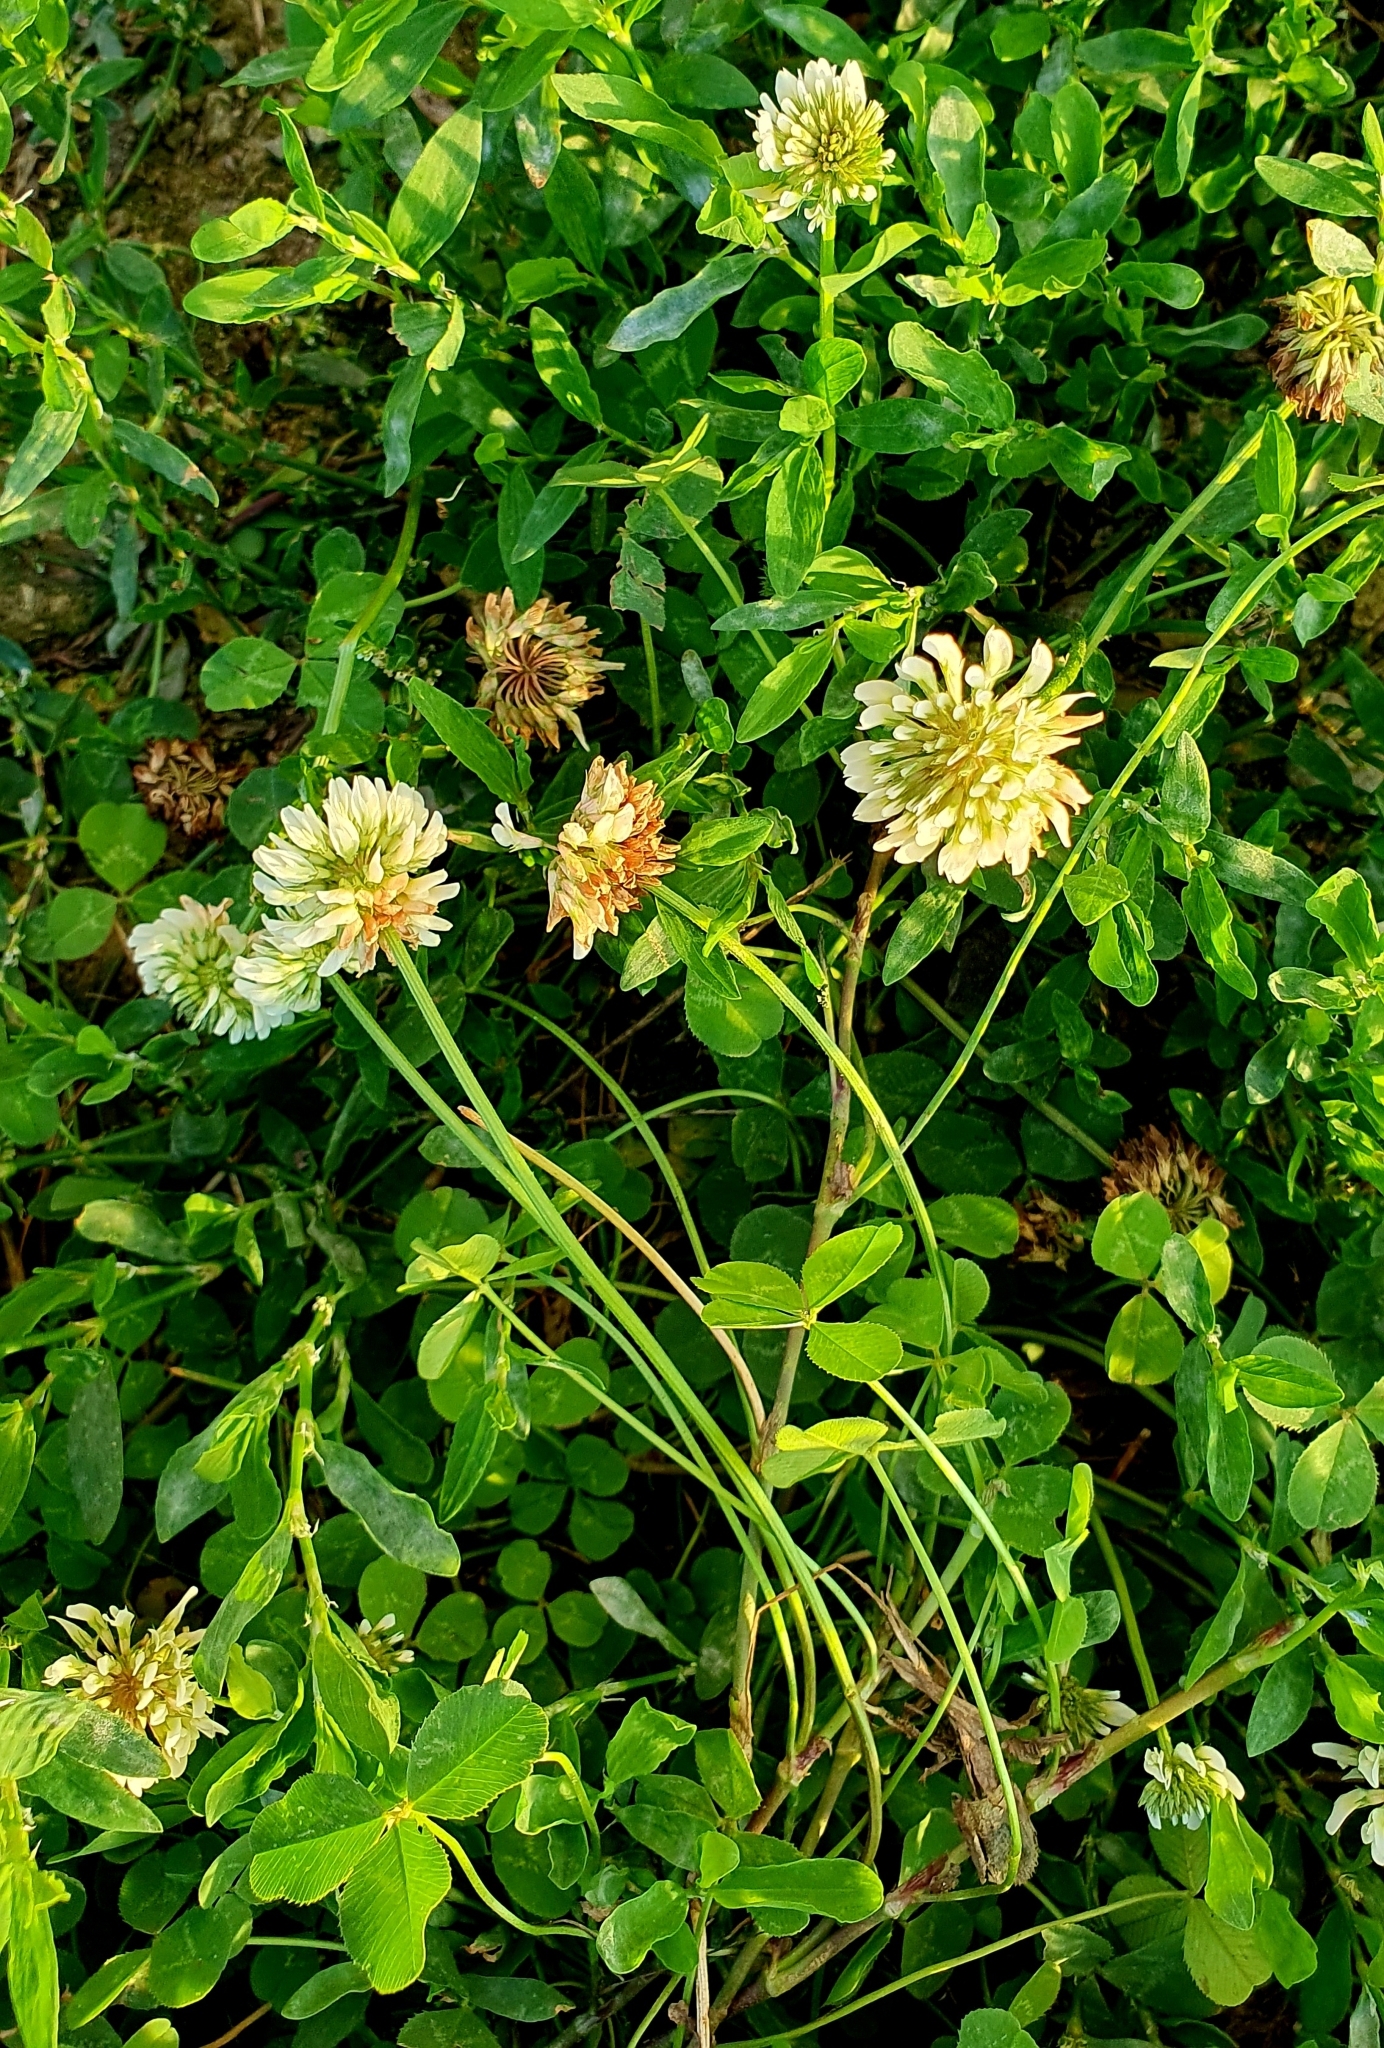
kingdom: Plantae
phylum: Tracheophyta
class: Magnoliopsida
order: Fabales
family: Fabaceae
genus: Trifolium
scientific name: Trifolium repens
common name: White clover
